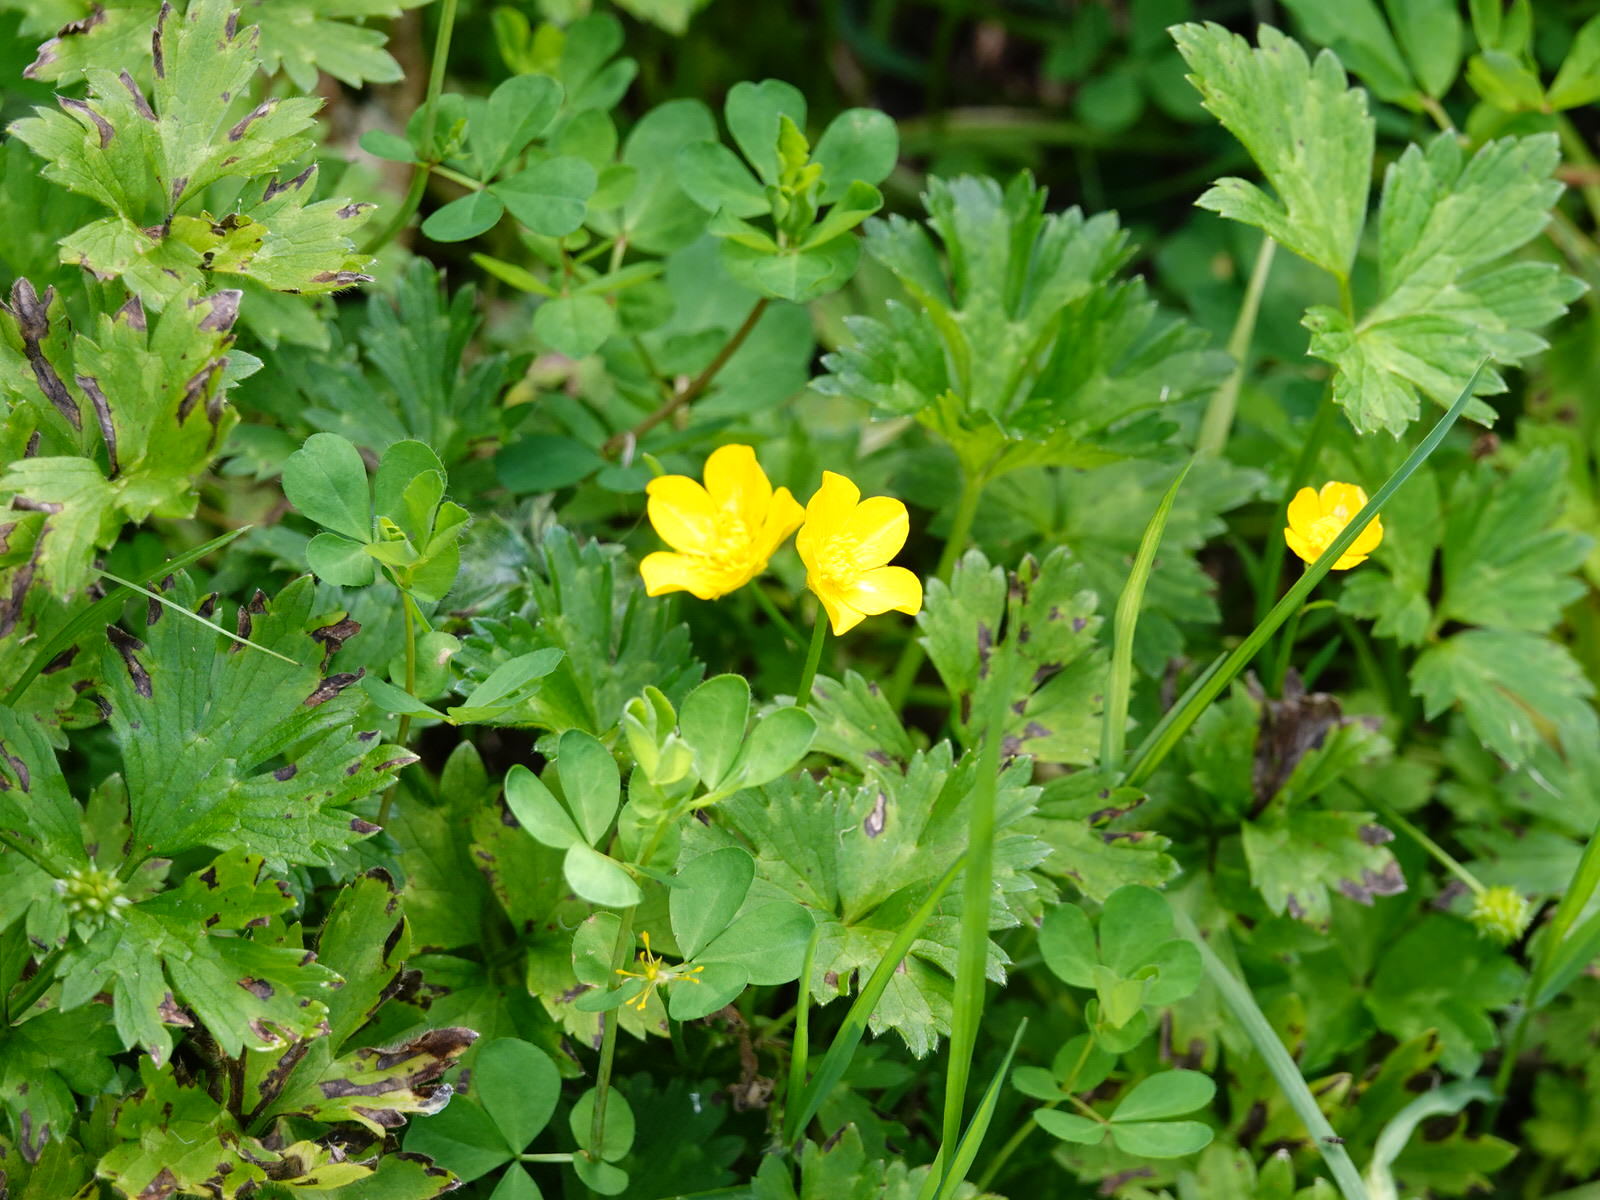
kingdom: Plantae
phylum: Tracheophyta
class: Magnoliopsida
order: Ranunculales
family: Ranunculaceae
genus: Ranunculus
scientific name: Ranunculus repens
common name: Creeping buttercup
